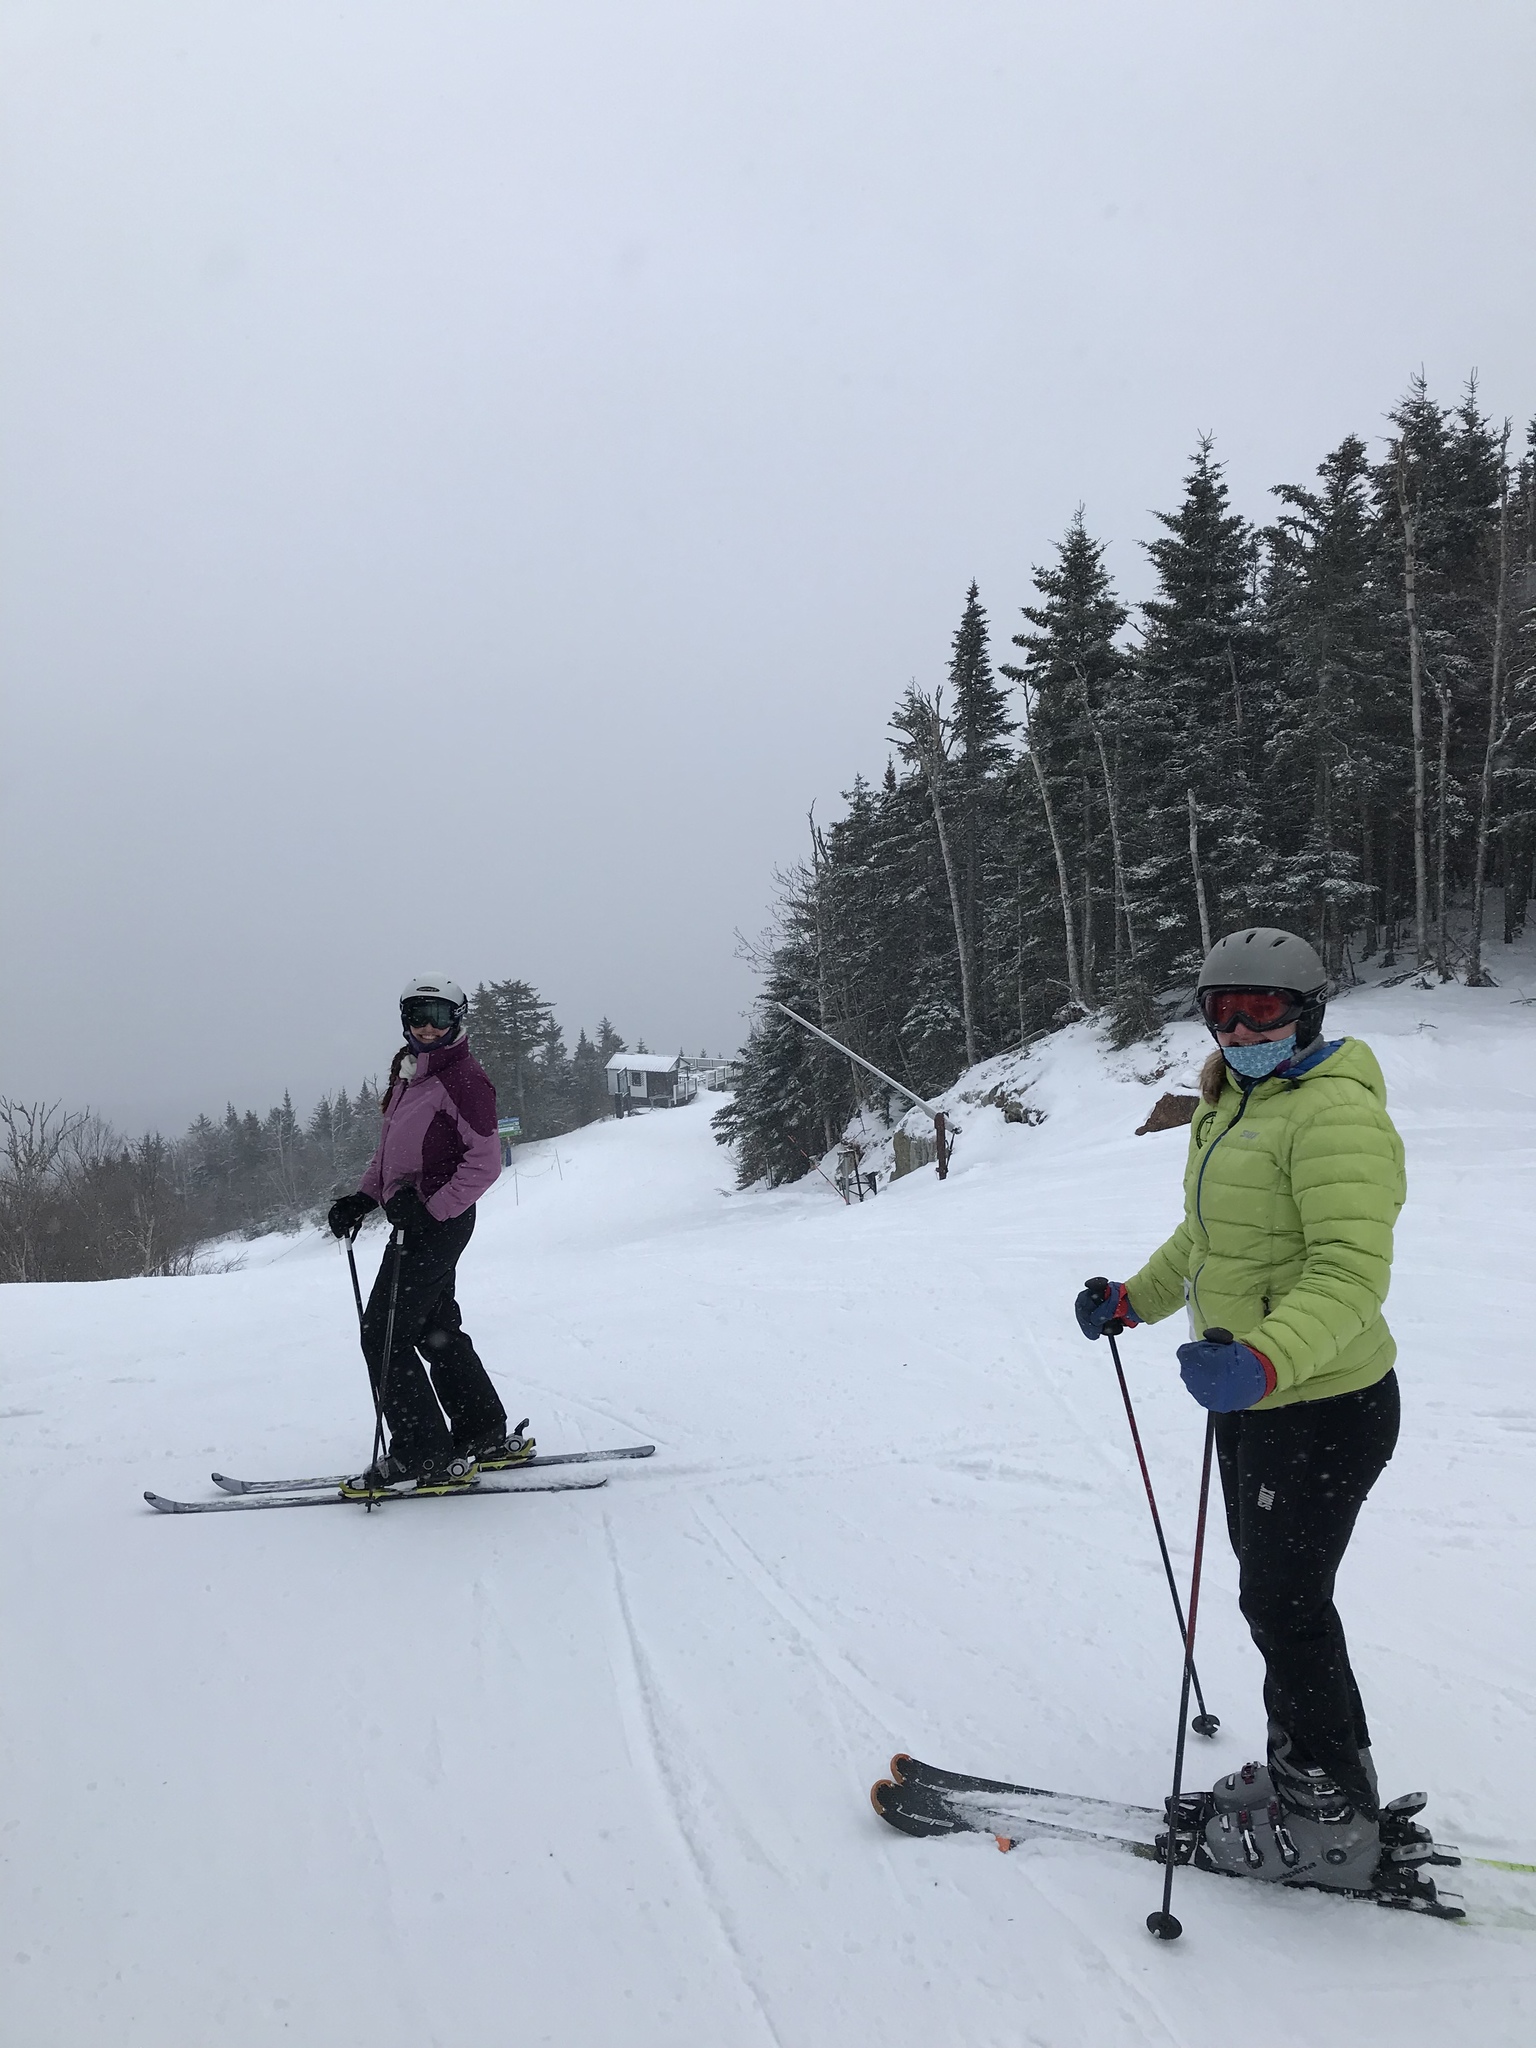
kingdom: Plantae
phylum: Tracheophyta
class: Pinopsida
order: Pinales
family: Pinaceae
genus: Abies
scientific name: Abies balsamea
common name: Balsam fir
